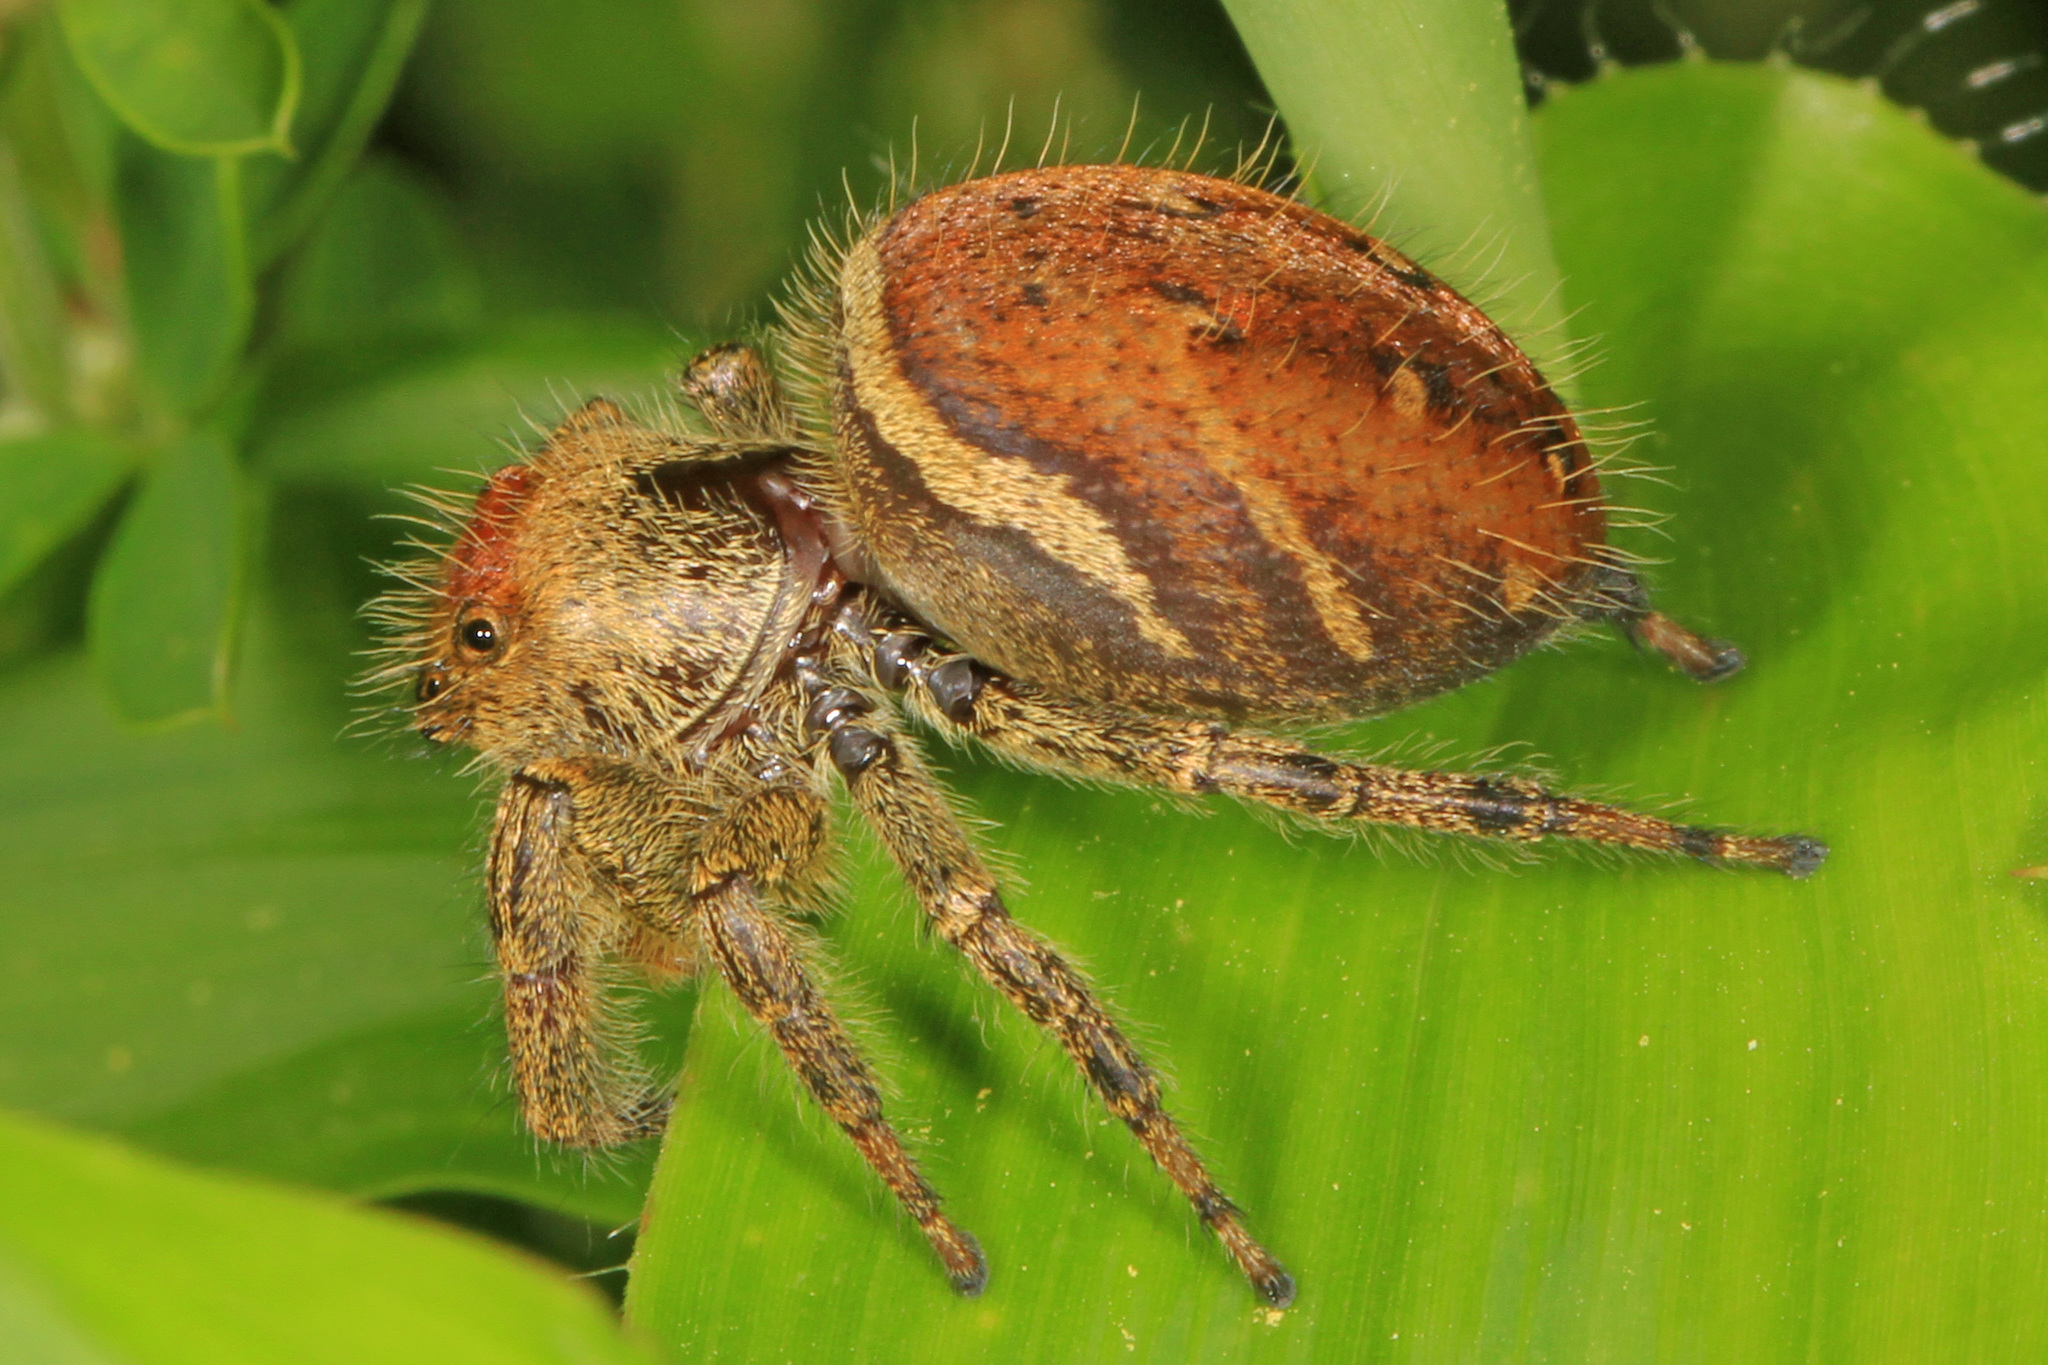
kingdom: Animalia
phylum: Arthropoda
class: Arachnida
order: Araneae
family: Salticidae
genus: Phidippus
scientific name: Phidippus clarus
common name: Brilliant jumping spider
